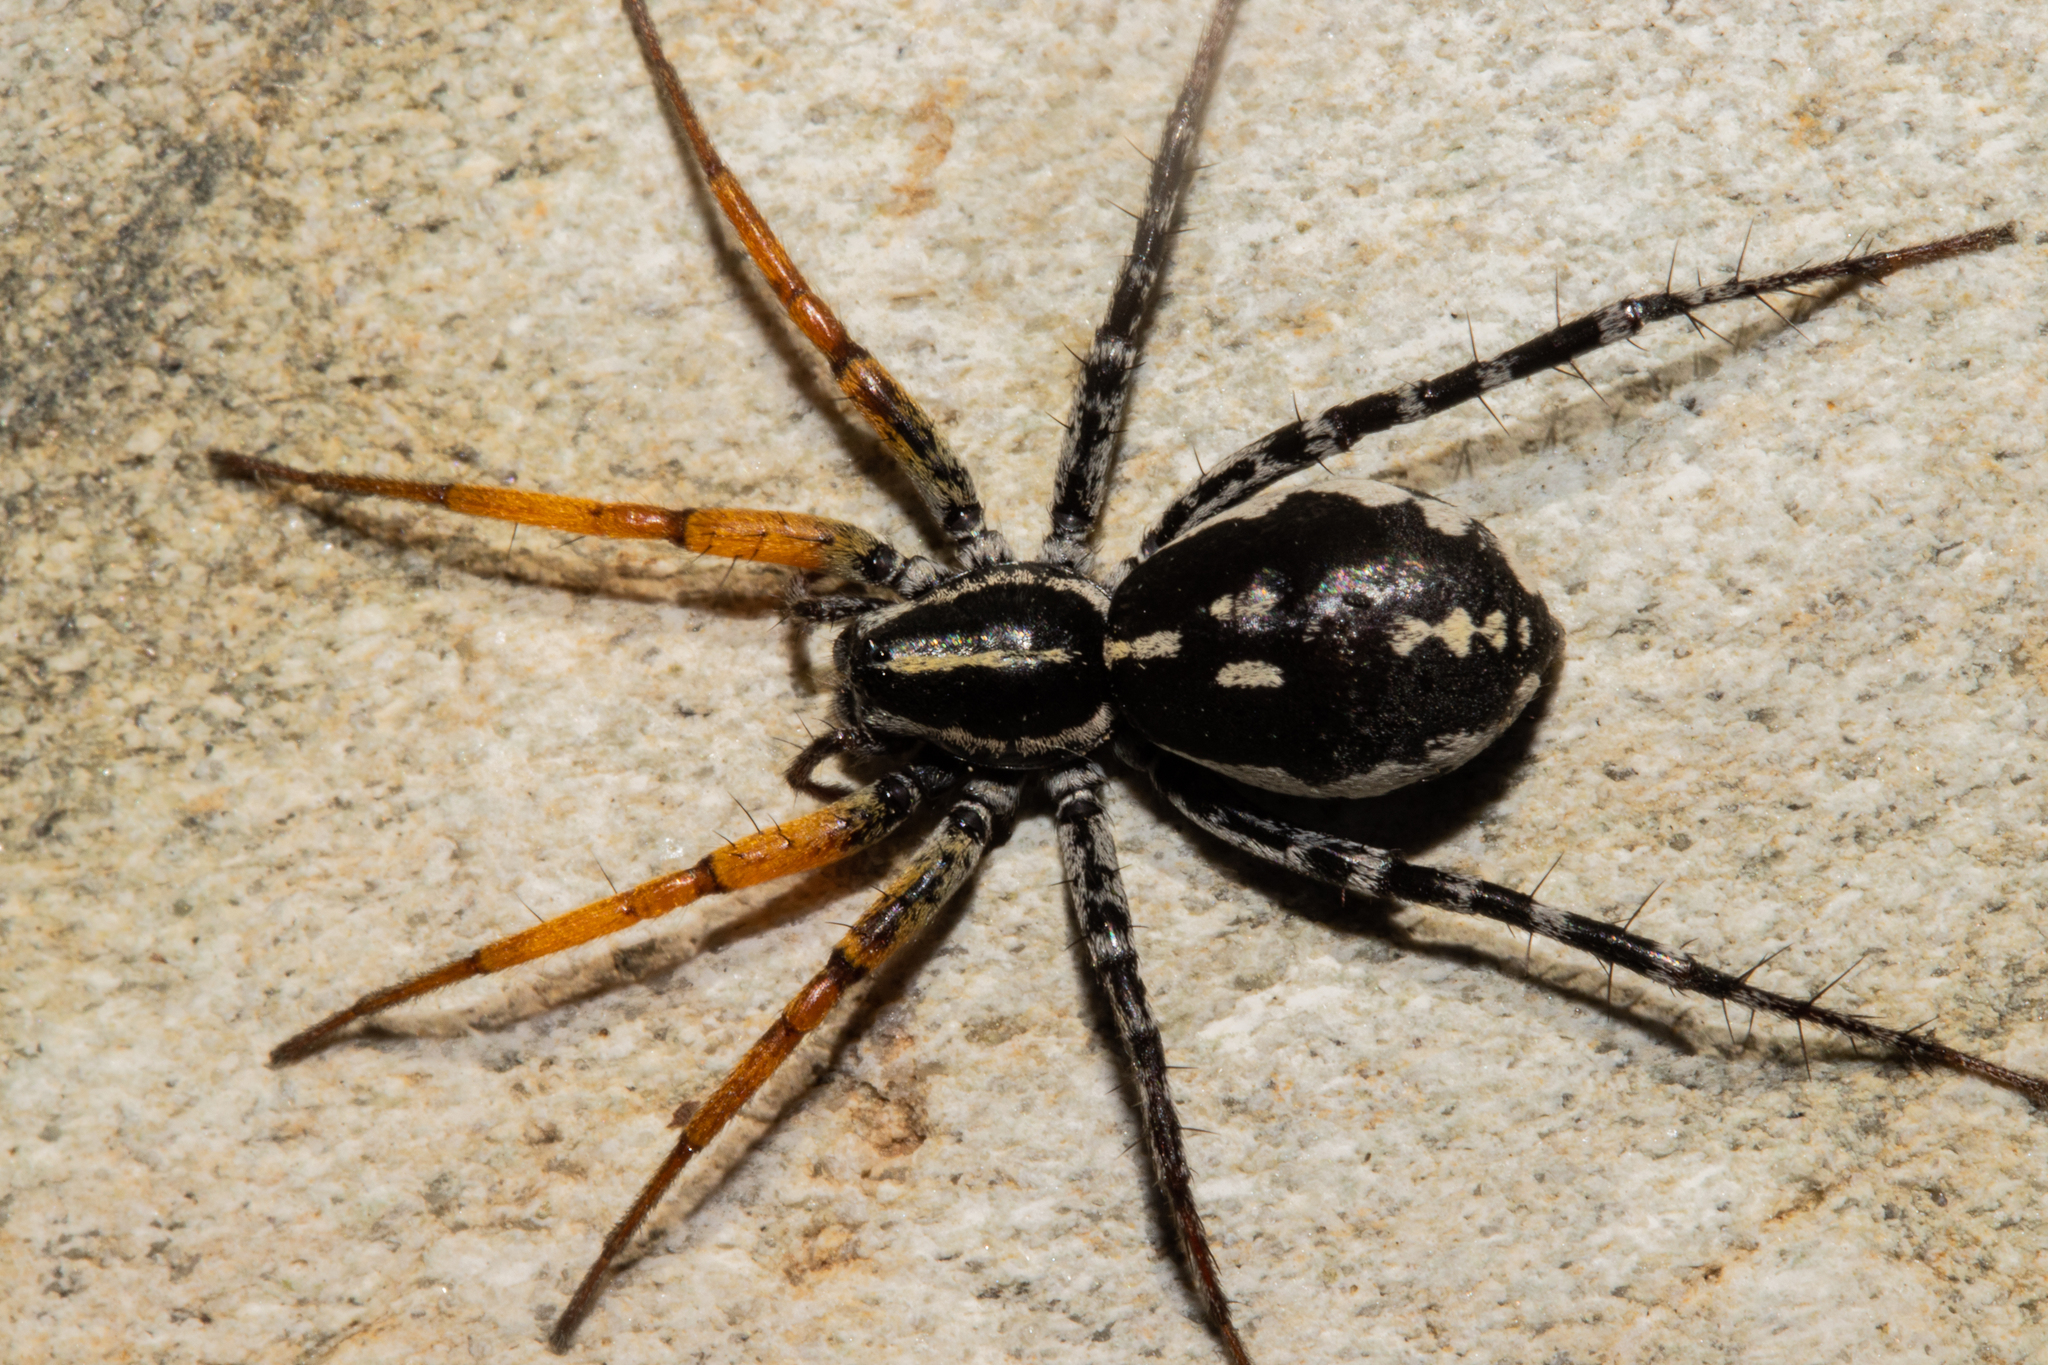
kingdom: Animalia
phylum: Arthropoda
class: Arachnida
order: Araneae
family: Corinnidae
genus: Nyssus
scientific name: Nyssus coloripes
